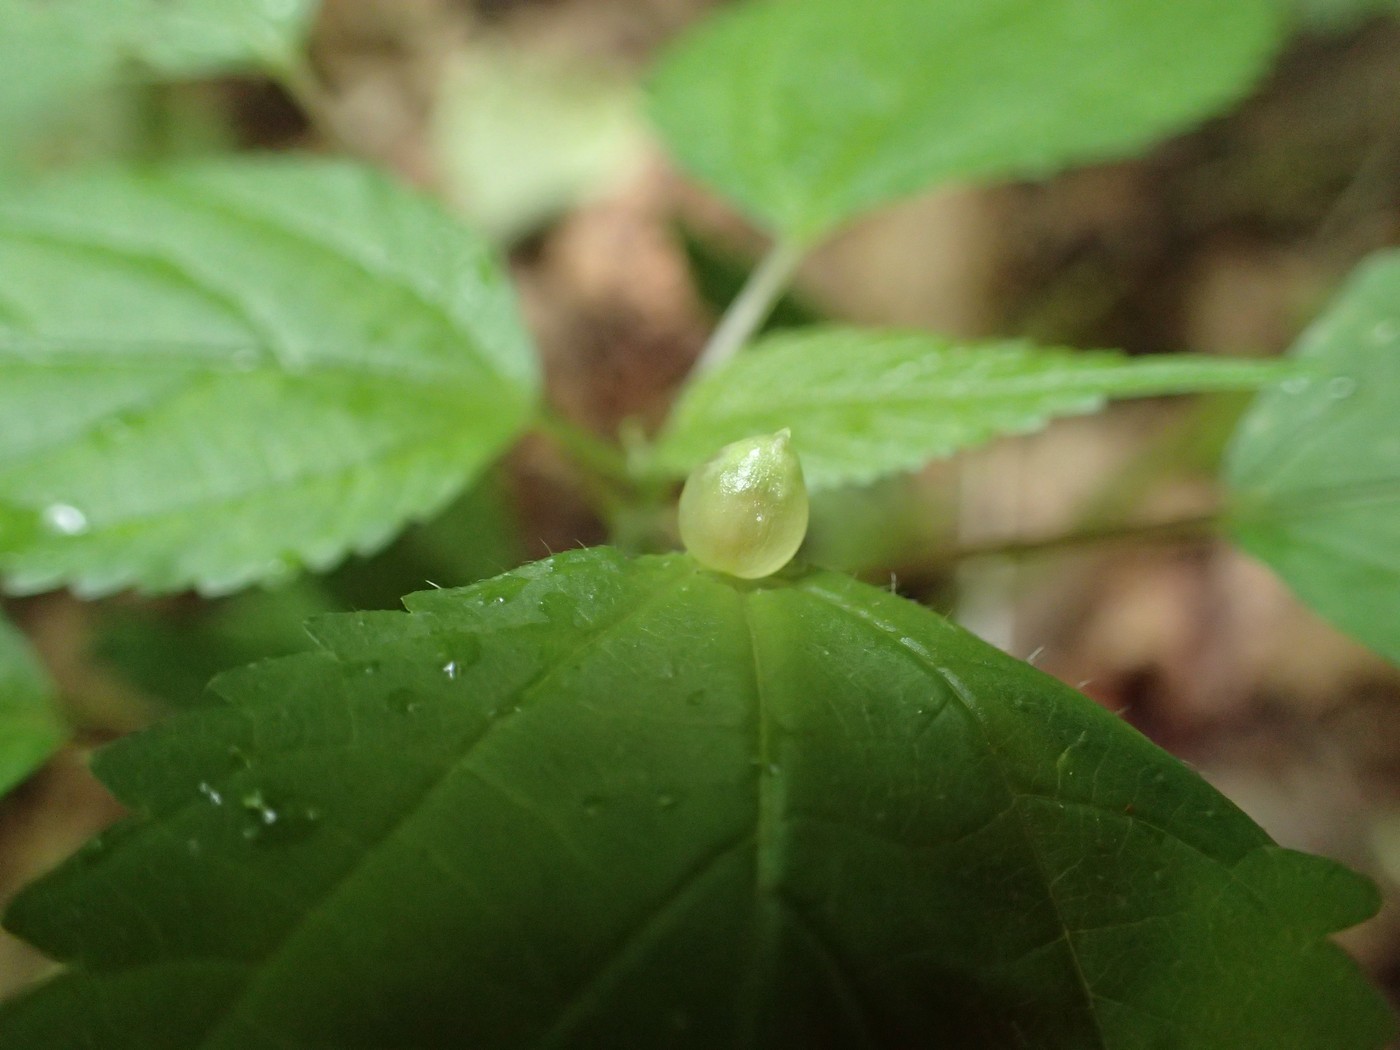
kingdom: Animalia
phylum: Arthropoda
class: Insecta
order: Diptera
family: Cecidomyiidae
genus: Dasineura
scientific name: Dasineura investita
